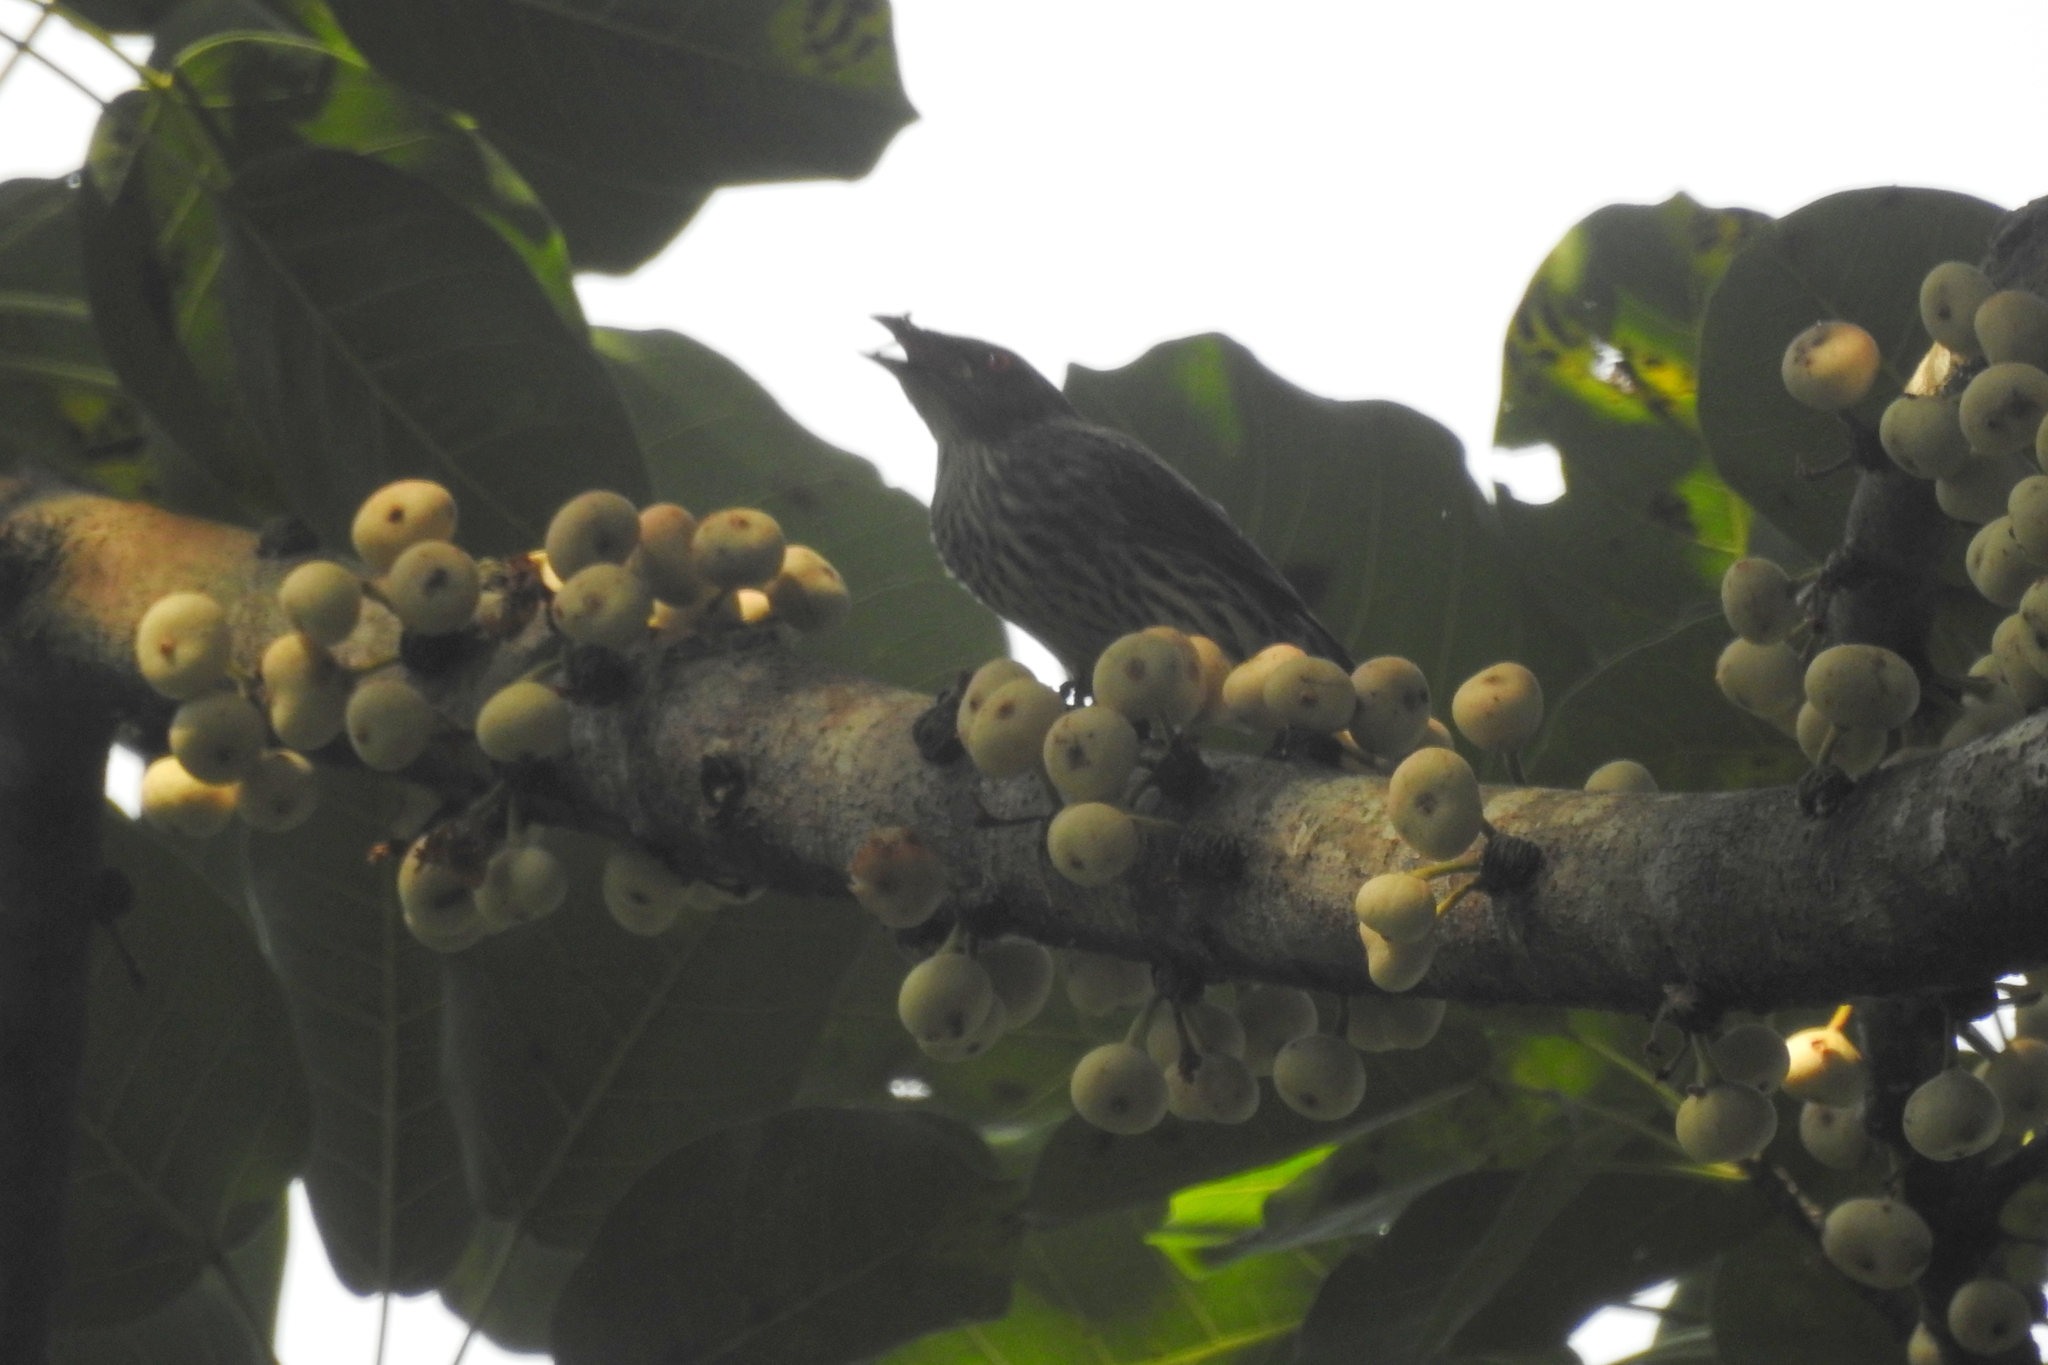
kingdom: Animalia
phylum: Chordata
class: Aves
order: Passeriformes
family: Sturnidae
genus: Aplonis
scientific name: Aplonis panayensis
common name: Asian glossy starling
